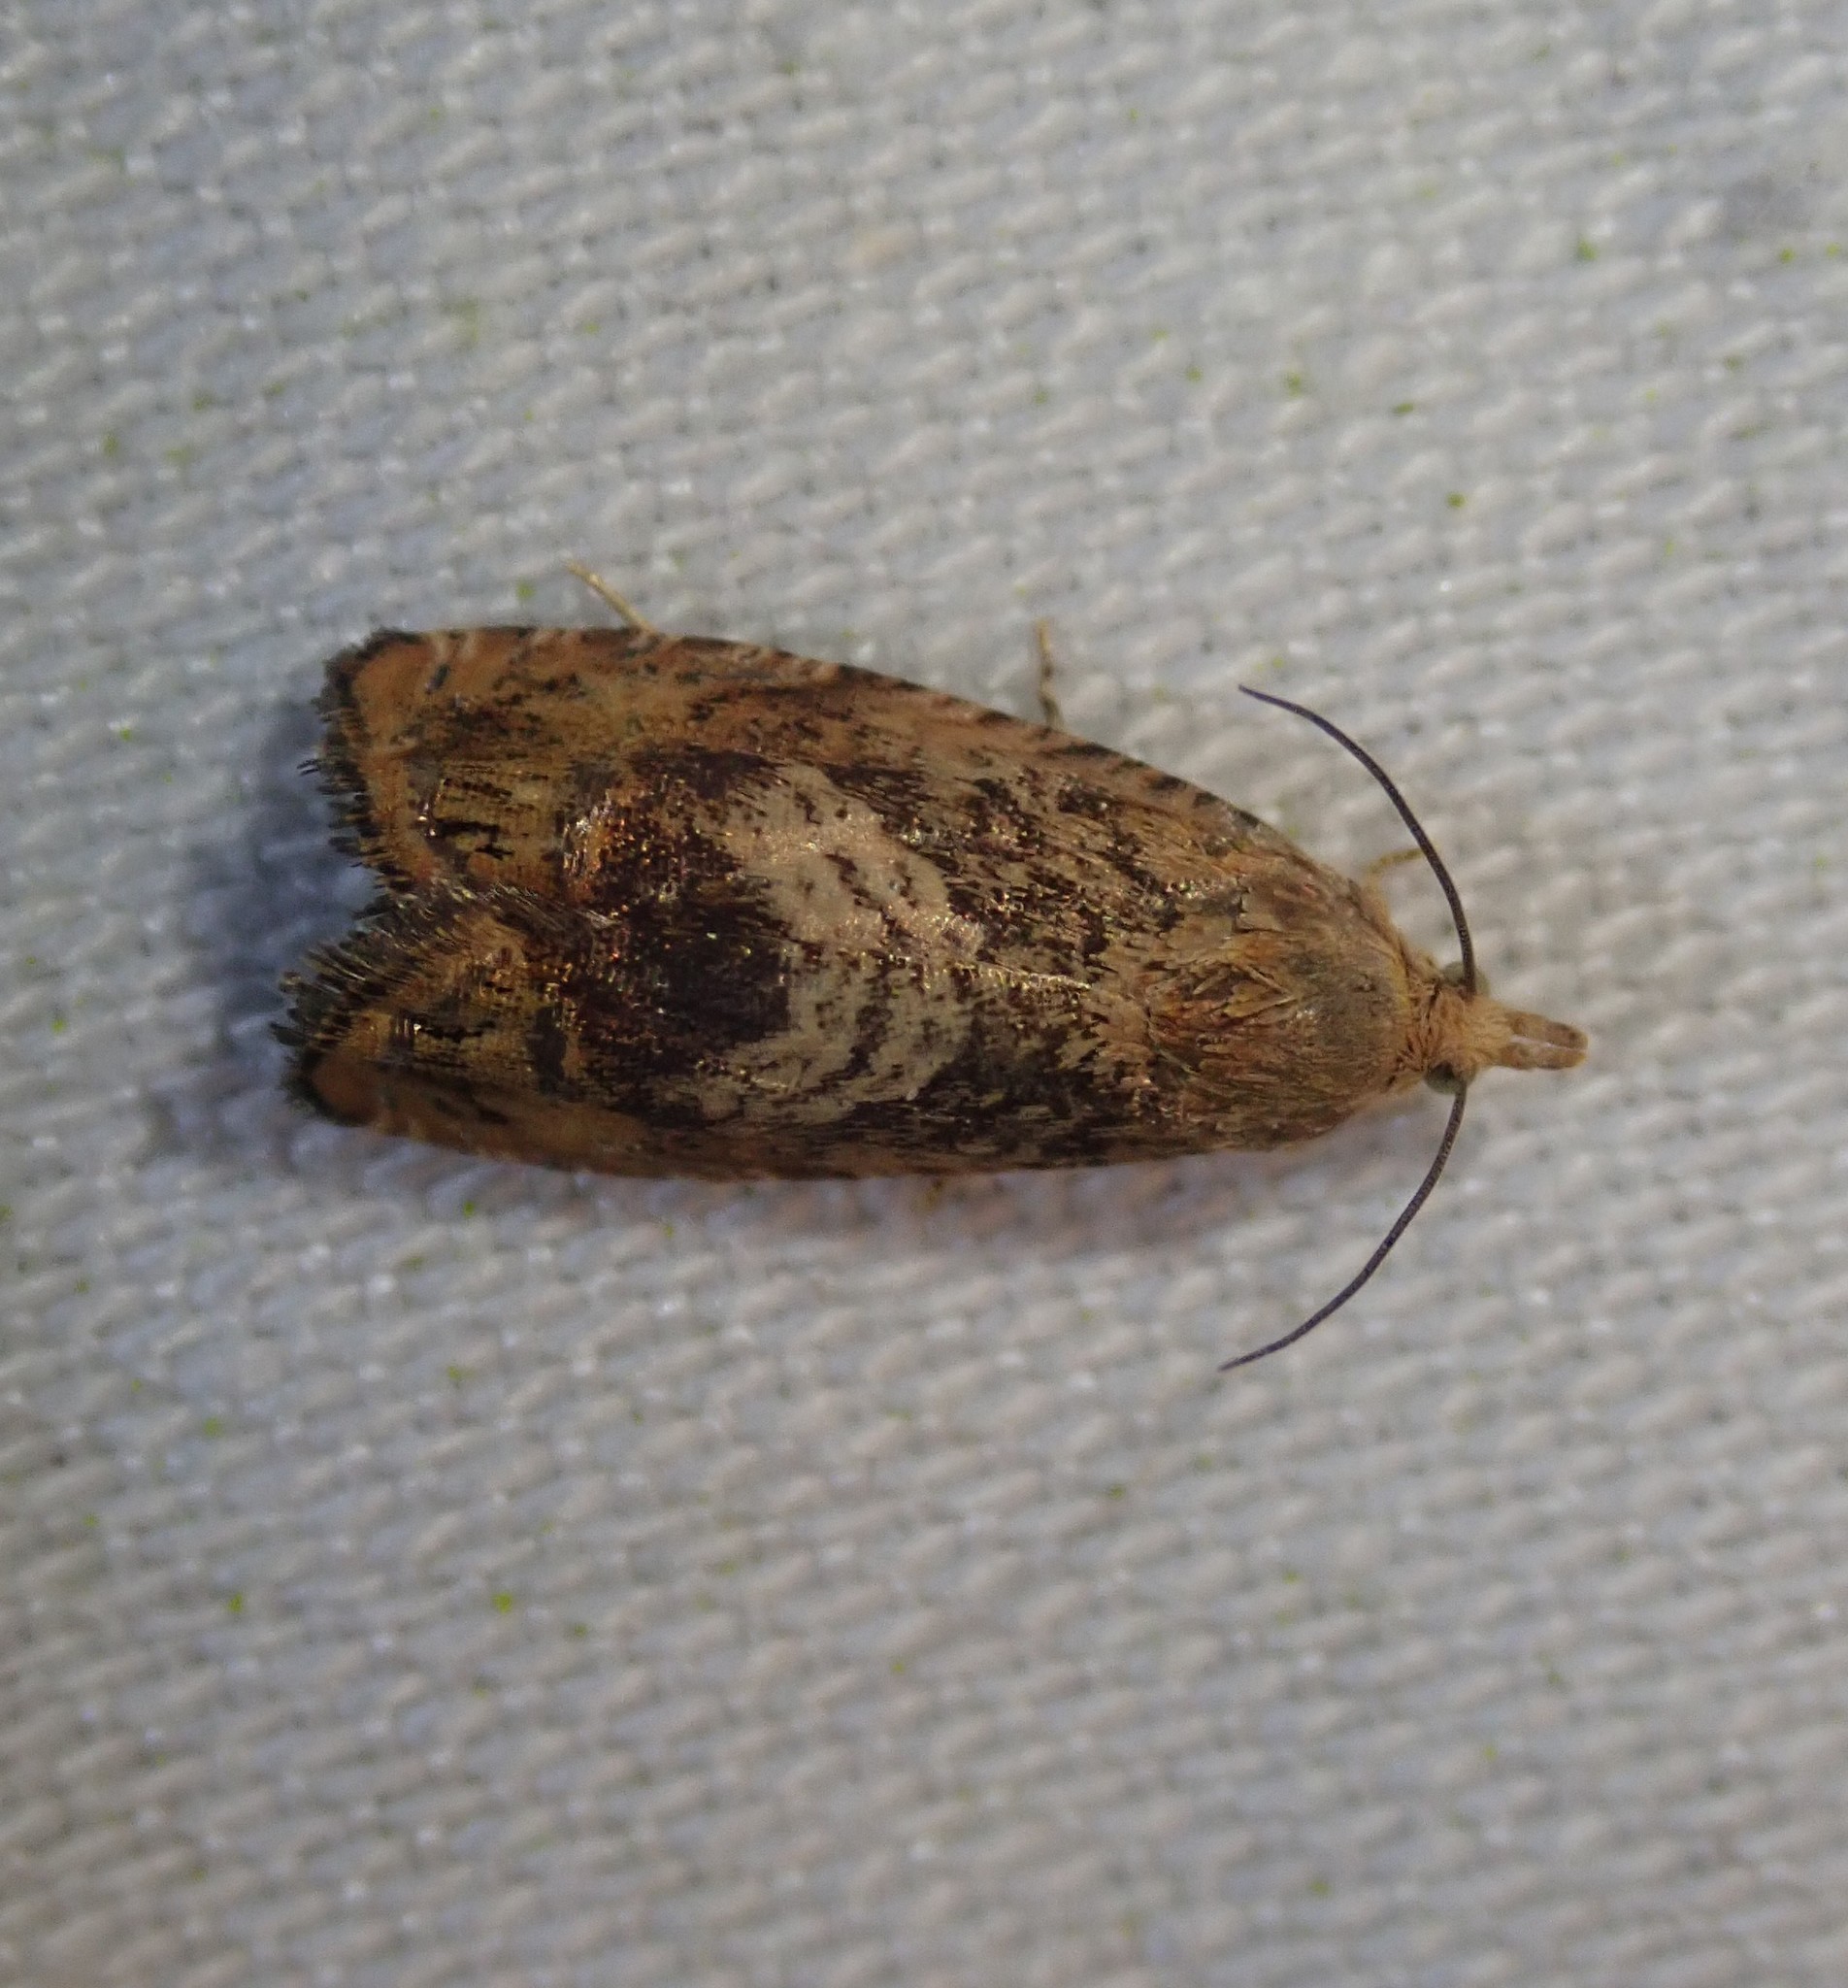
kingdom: Animalia
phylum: Arthropoda
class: Insecta
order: Lepidoptera
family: Tortricidae
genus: Cydia
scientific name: Cydia amplana
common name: Vagrant piercer
